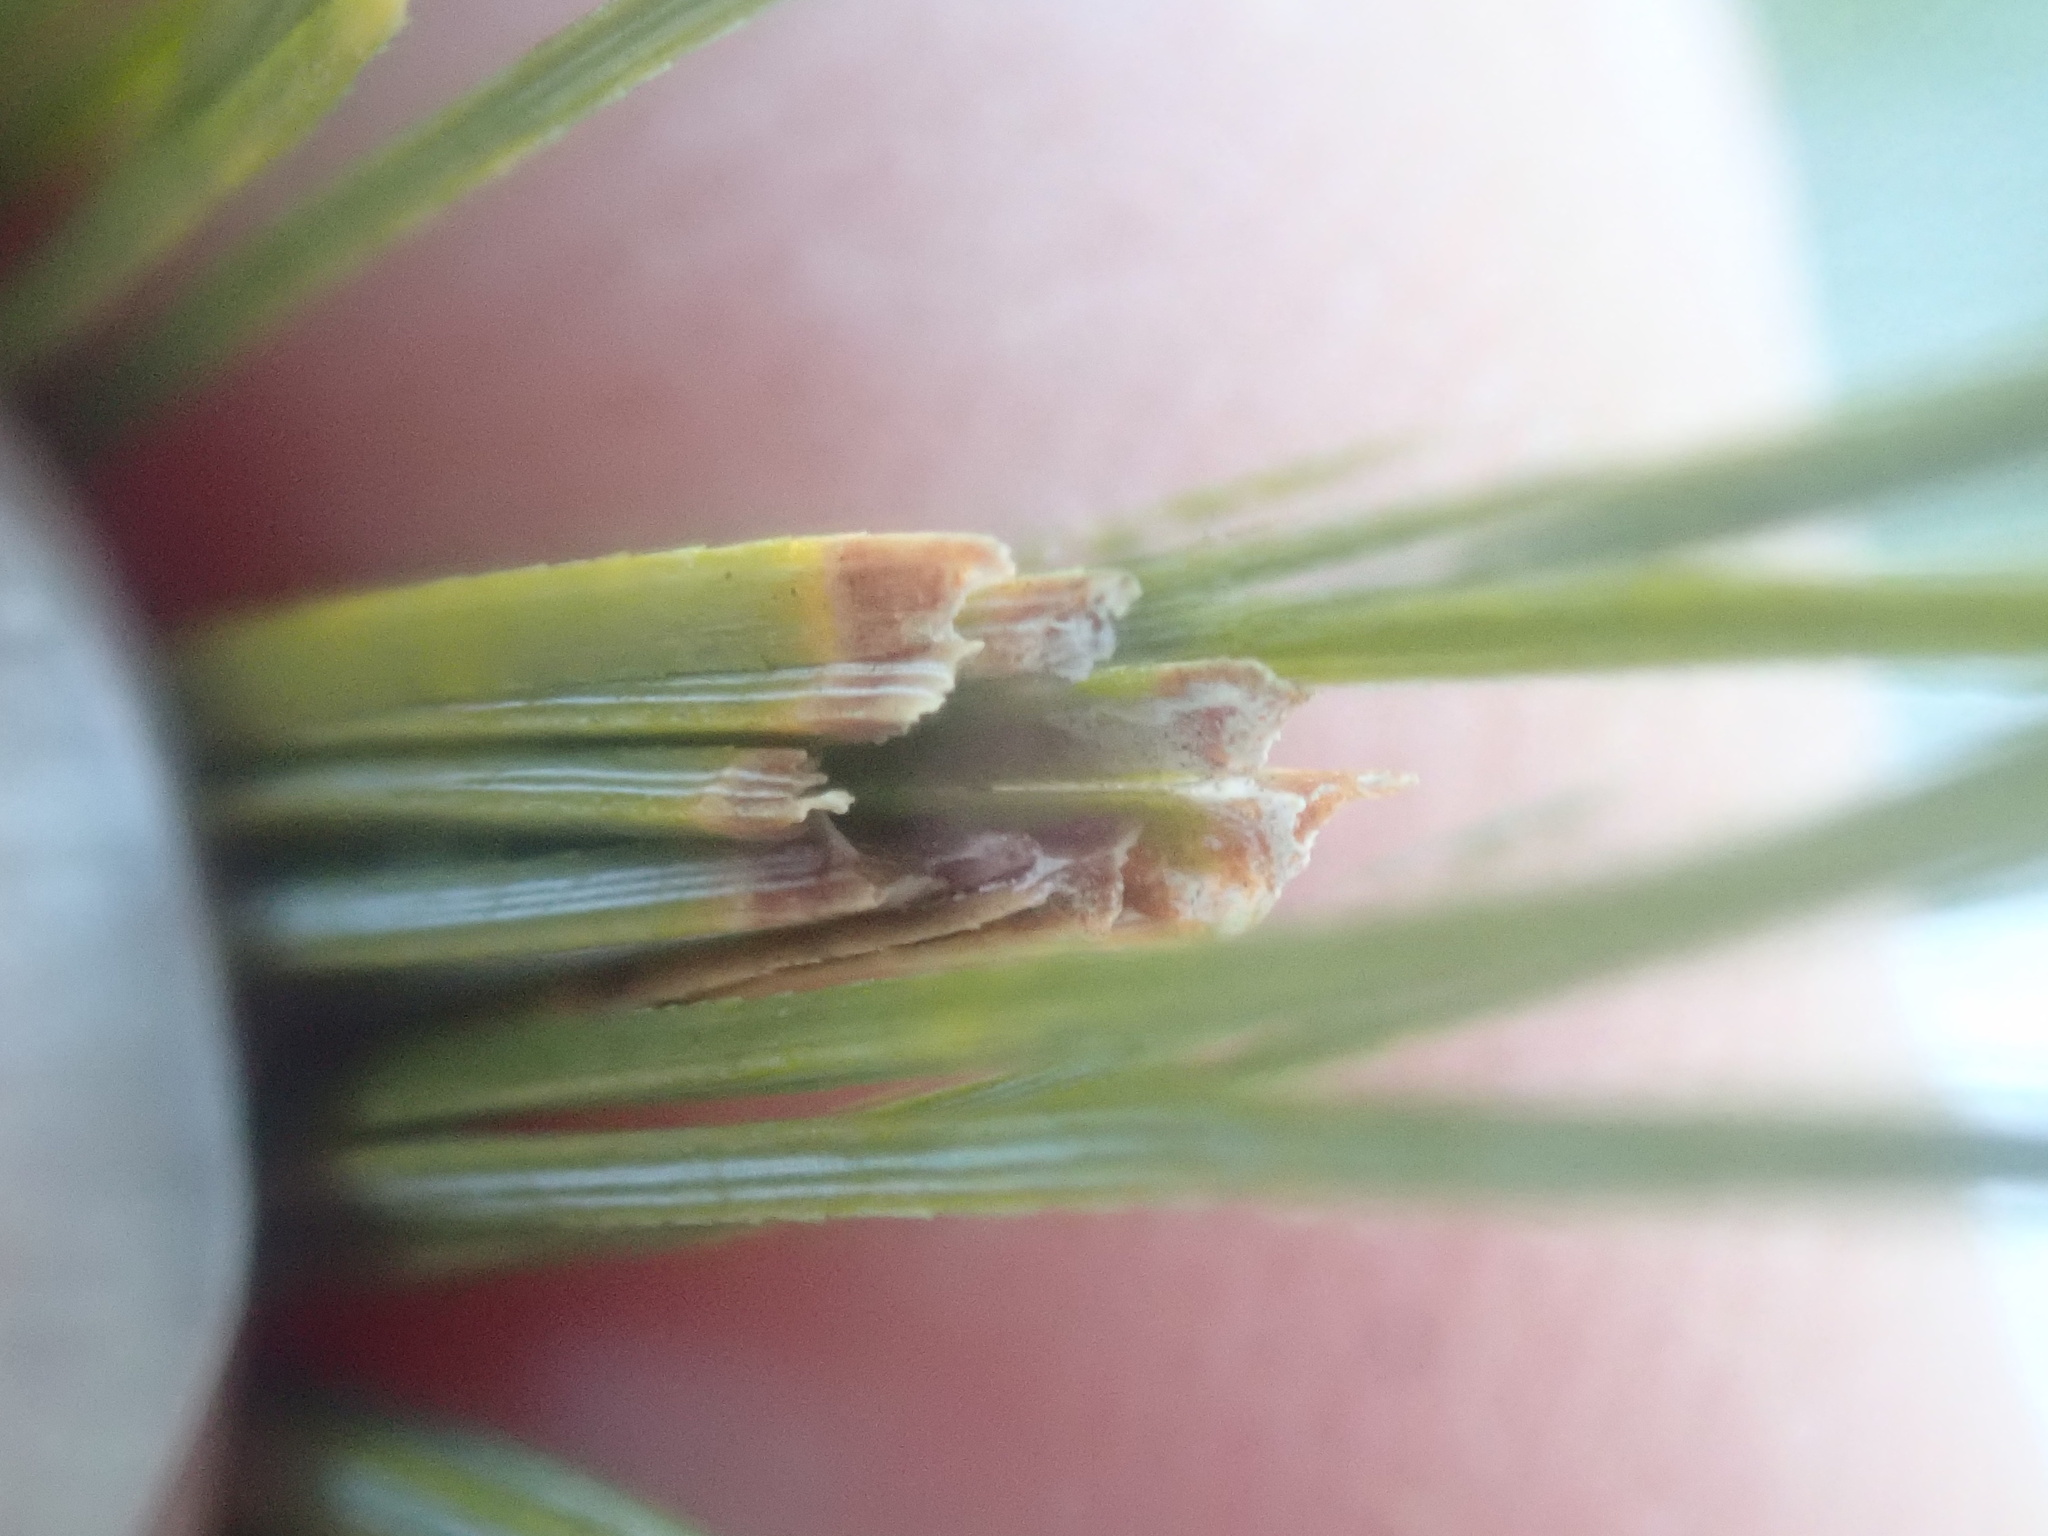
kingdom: Animalia
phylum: Arthropoda
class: Insecta
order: Lepidoptera
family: Tortricidae
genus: Argyrotaenia
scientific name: Argyrotaenia pinatubana
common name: Pine tube moth
